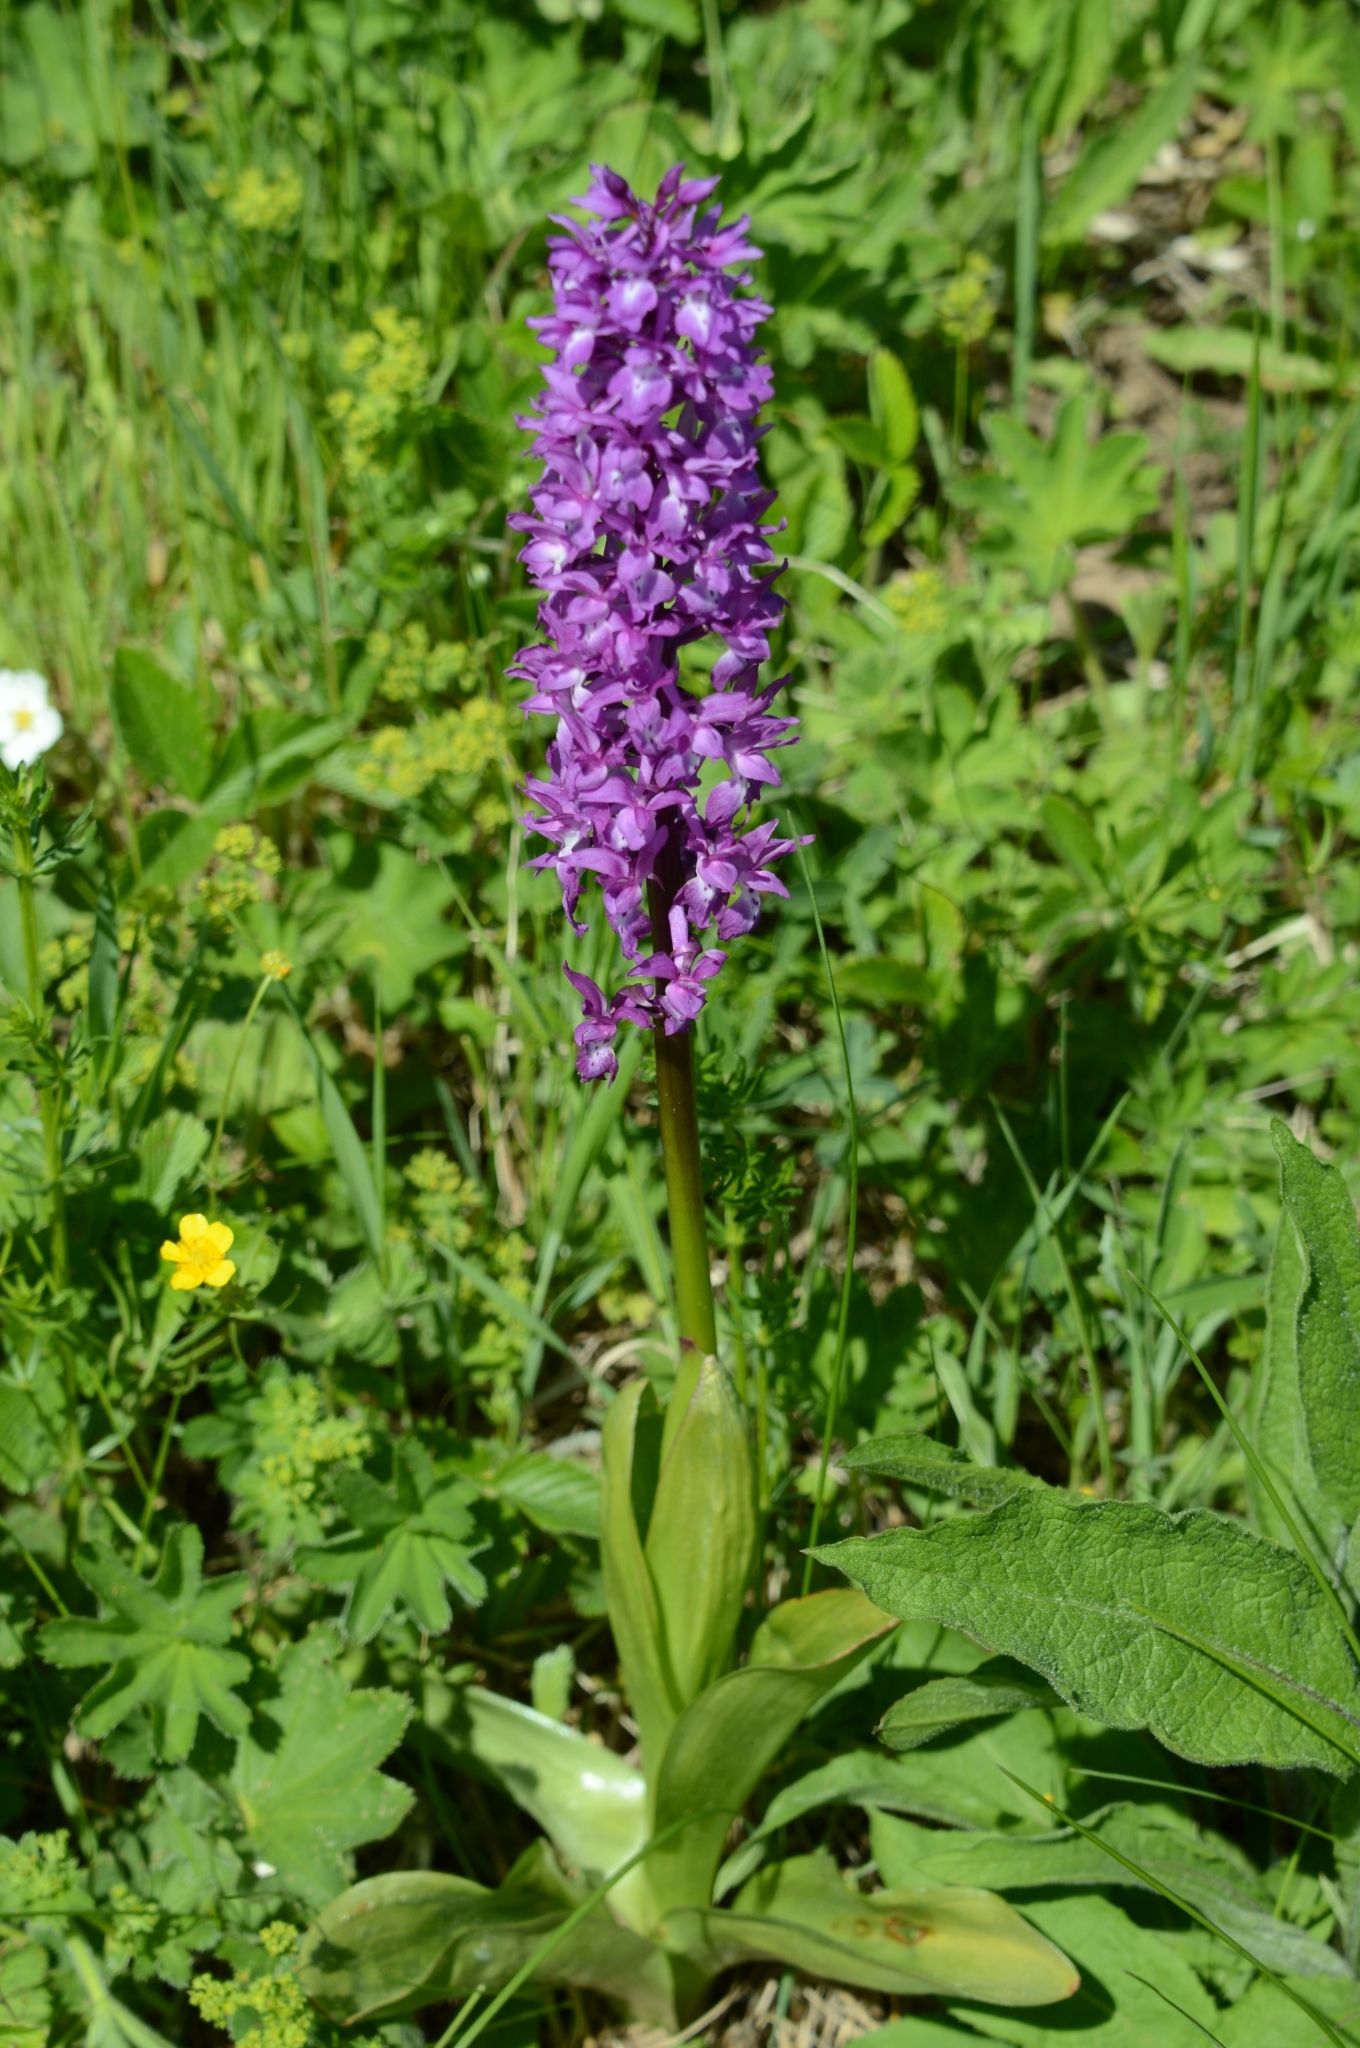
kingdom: Plantae
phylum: Tracheophyta
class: Liliopsida
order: Asparagales
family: Orchidaceae
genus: Orchis
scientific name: Orchis mascula
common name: Early-purple orchid
